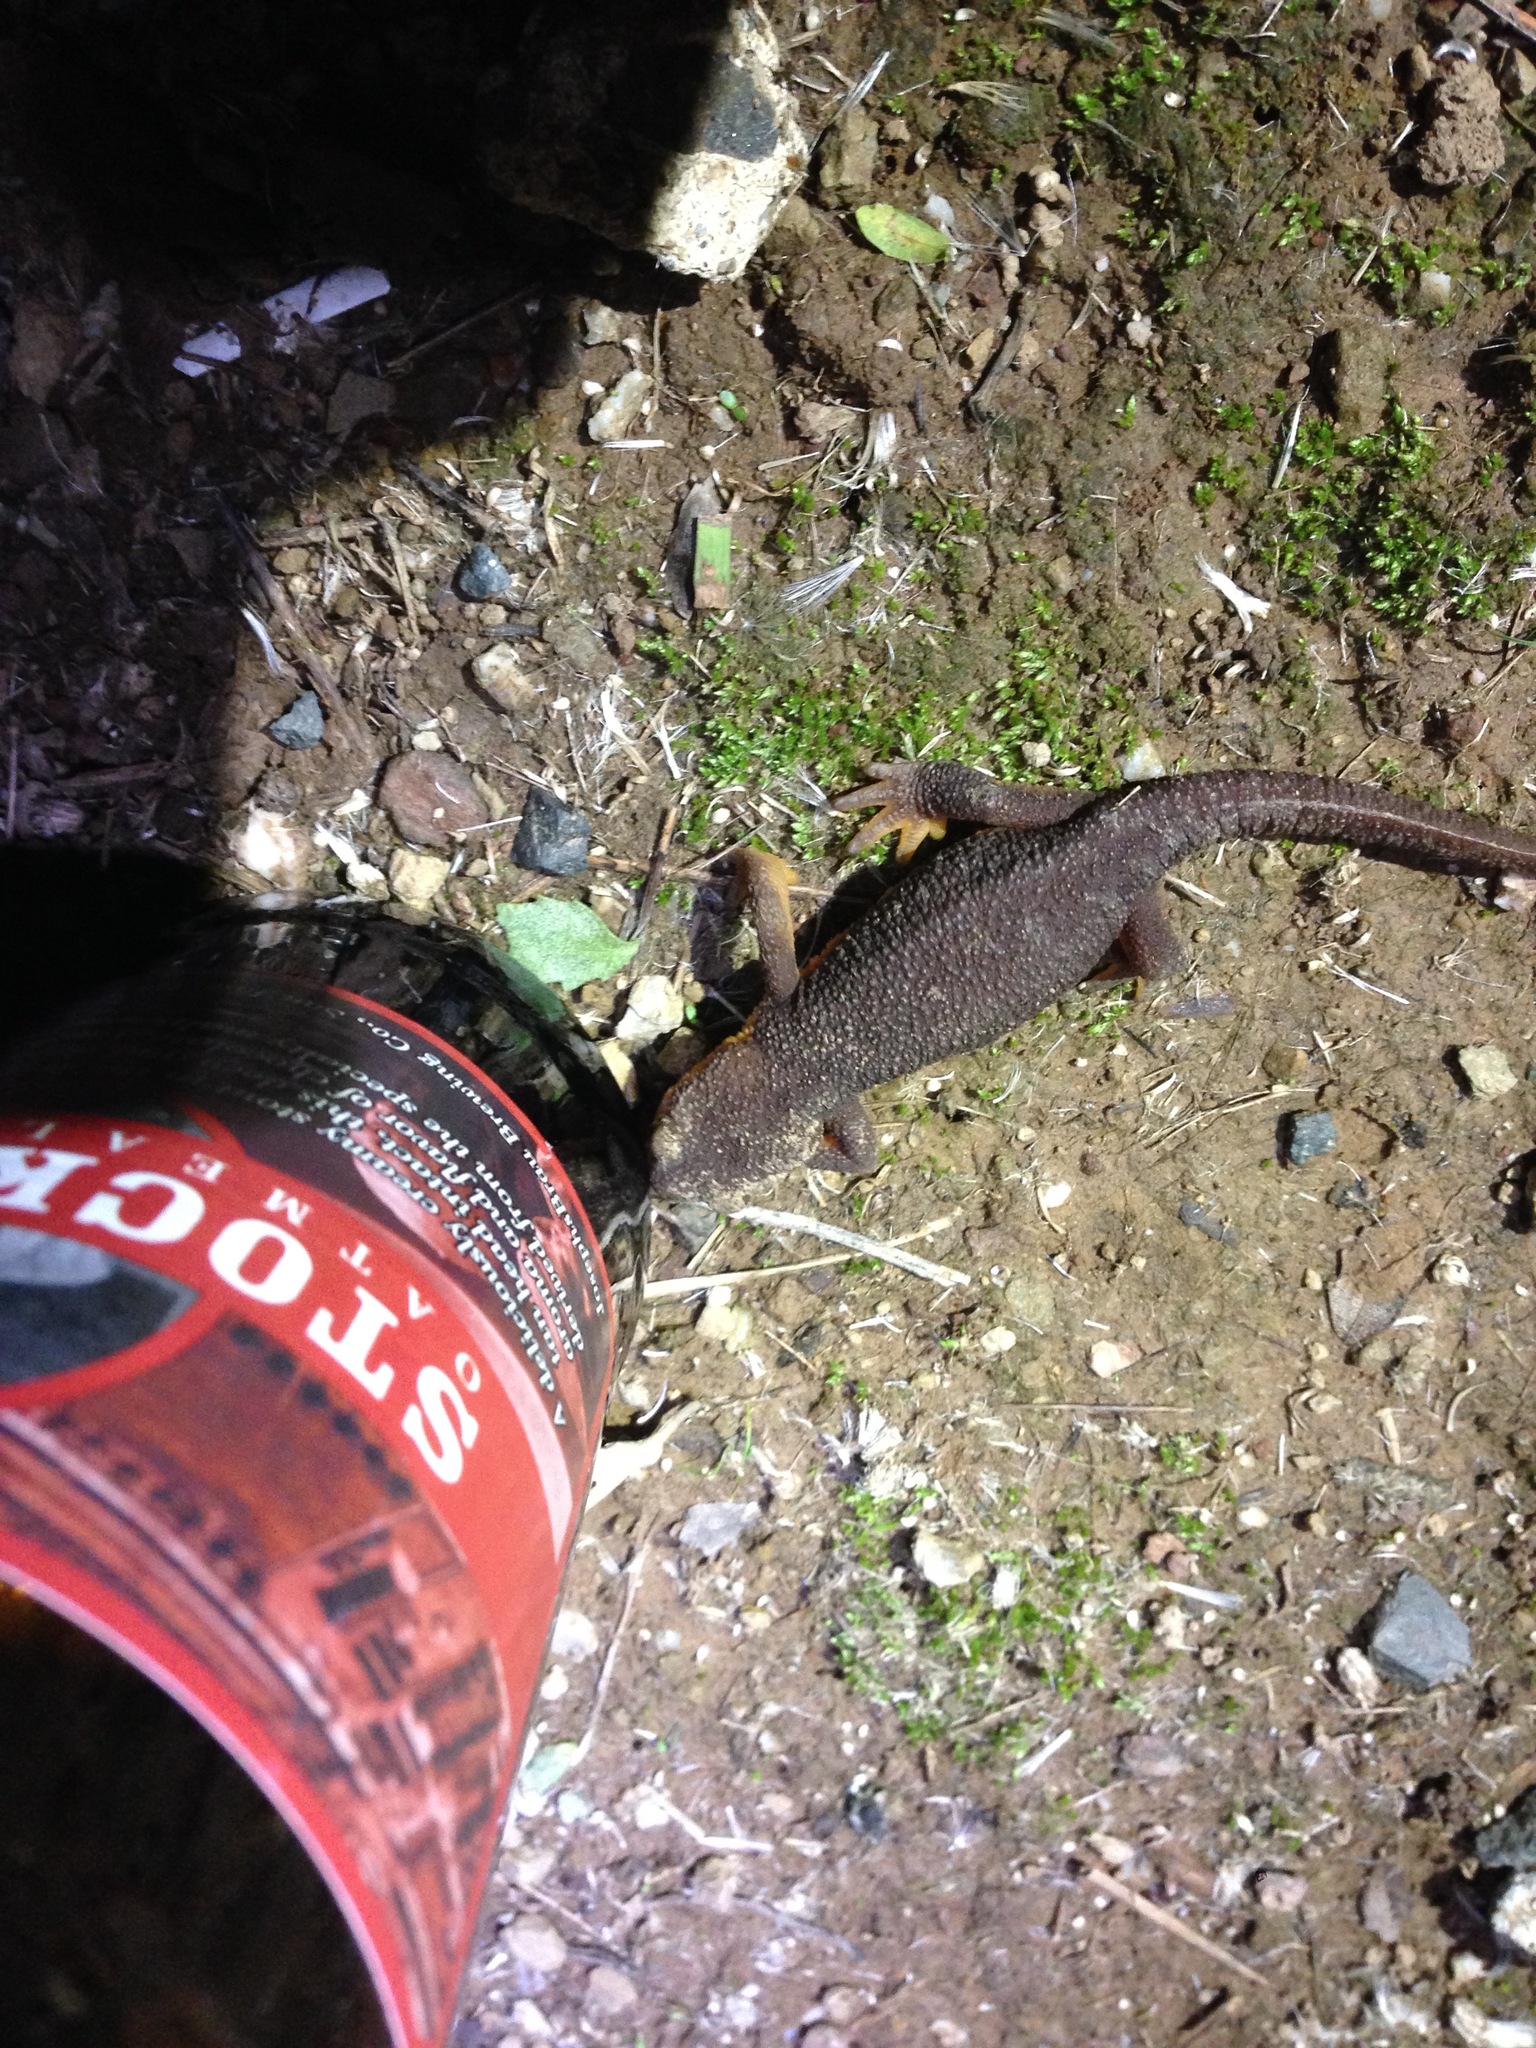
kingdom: Animalia
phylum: Chordata
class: Amphibia
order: Caudata
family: Salamandridae
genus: Taricha
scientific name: Taricha torosa
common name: California newt
